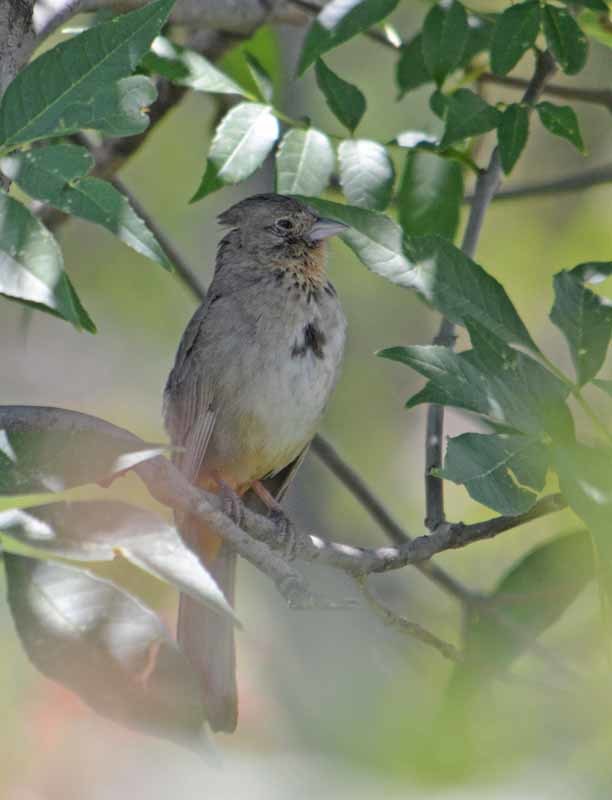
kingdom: Animalia
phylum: Chordata
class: Aves
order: Passeriformes
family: Passerellidae
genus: Melozone
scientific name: Melozone fusca
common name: Canyon towhee
